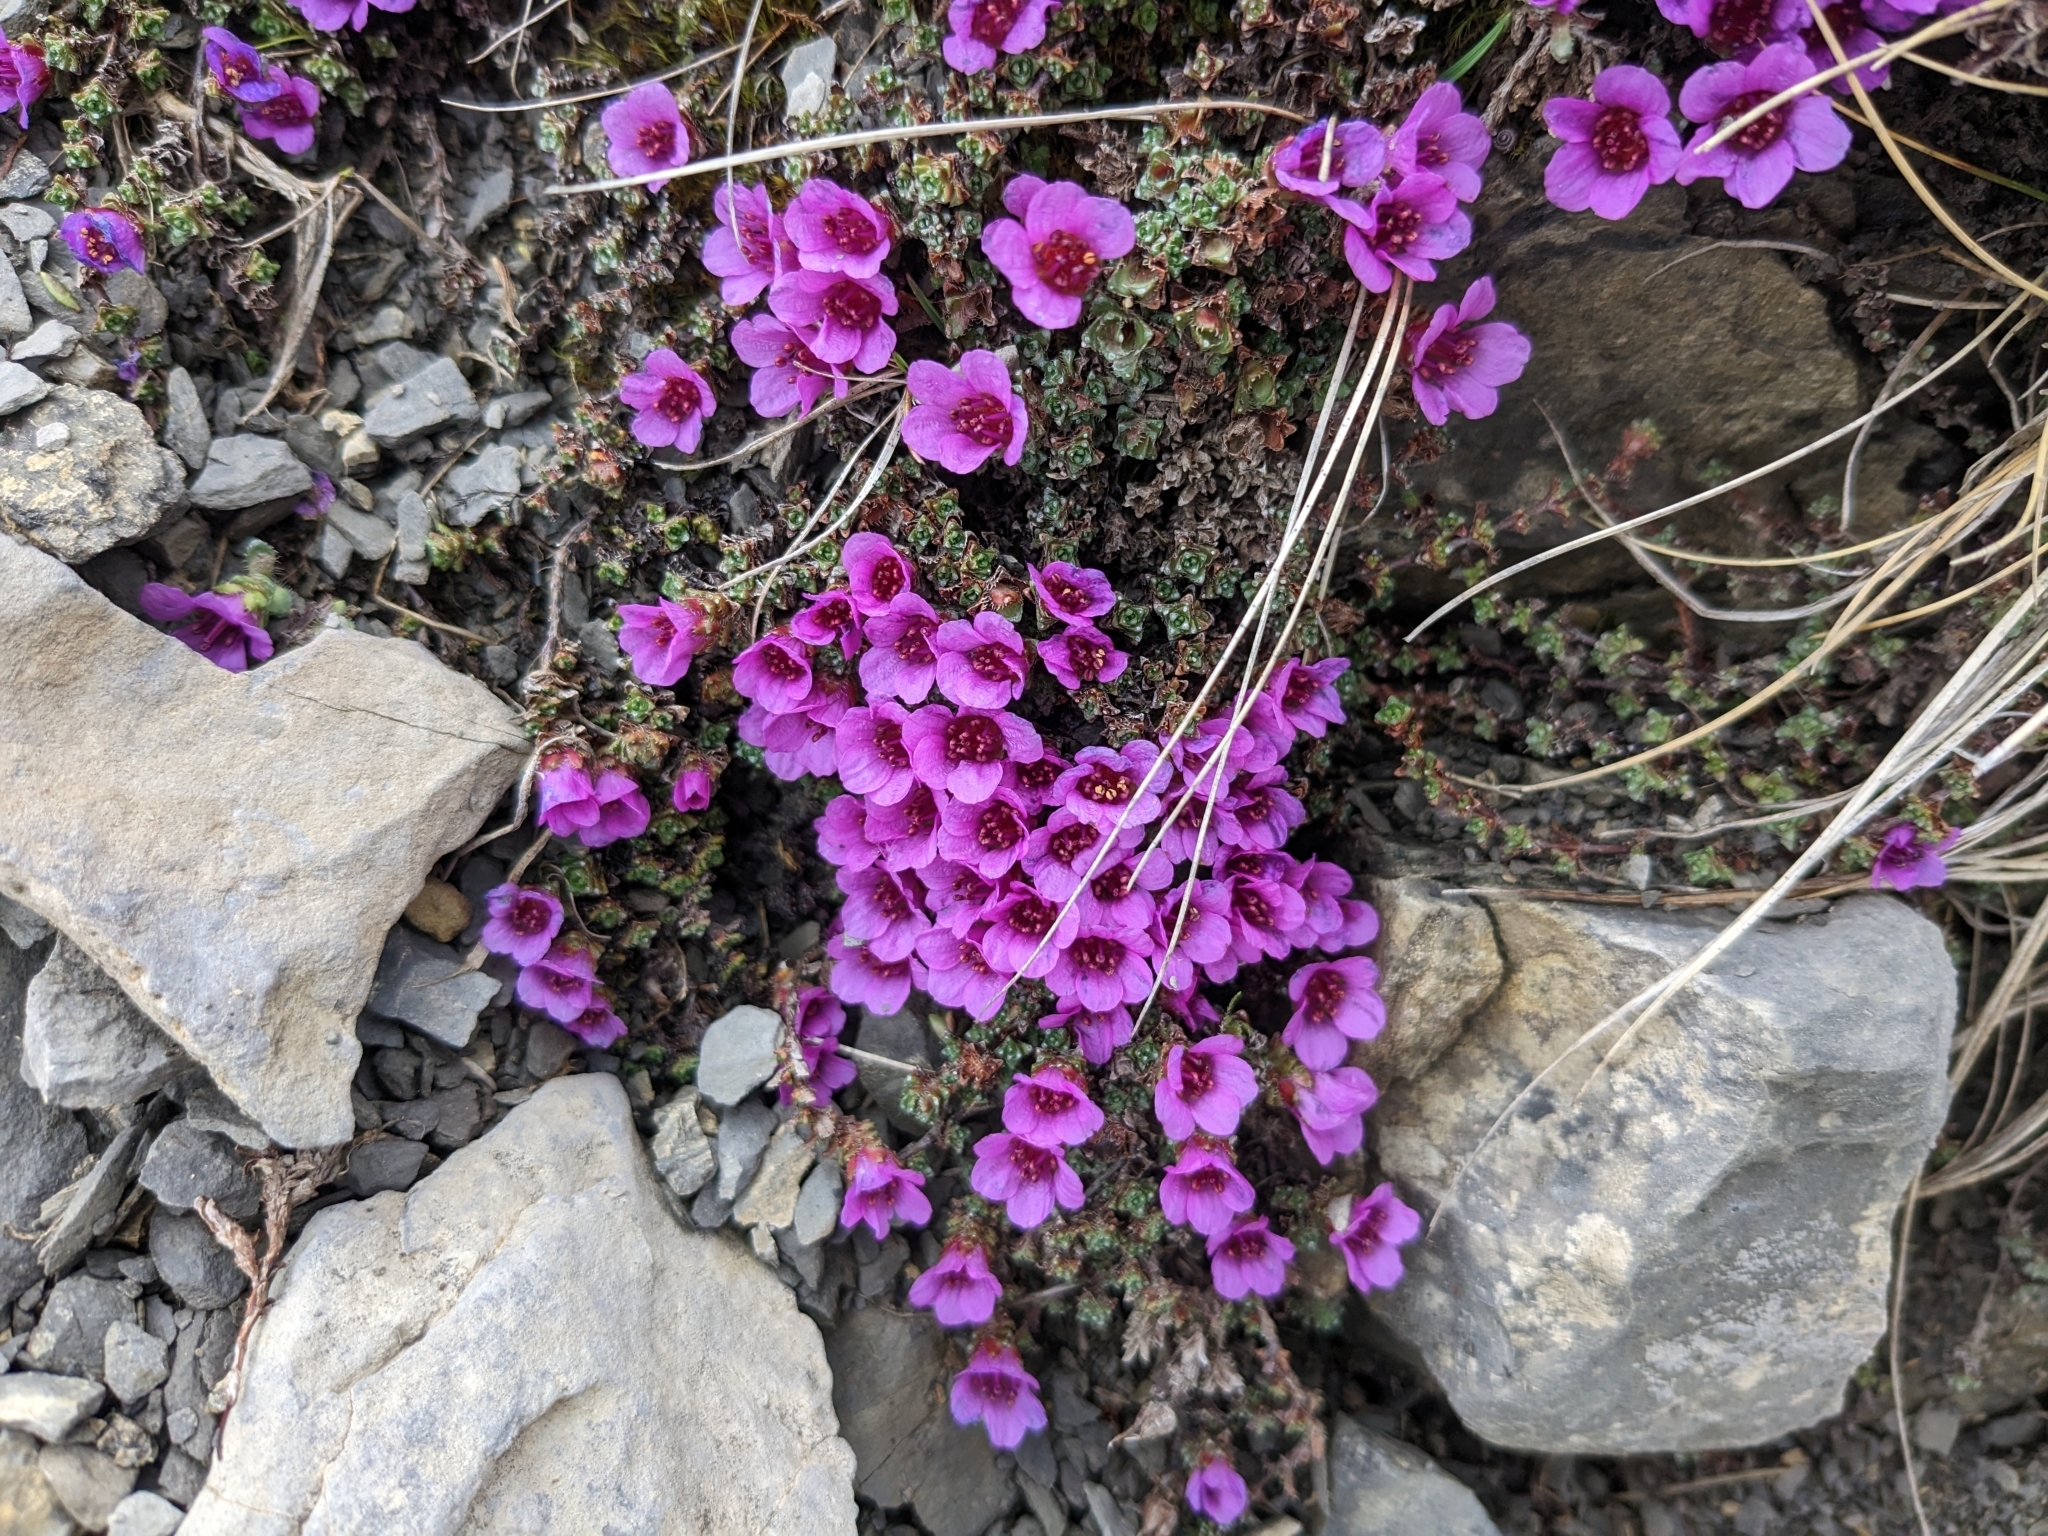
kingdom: Plantae
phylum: Tracheophyta
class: Magnoliopsida
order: Saxifragales
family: Saxifragaceae
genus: Saxifraga
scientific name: Saxifraga oppositifolia
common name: Purple saxifrage
